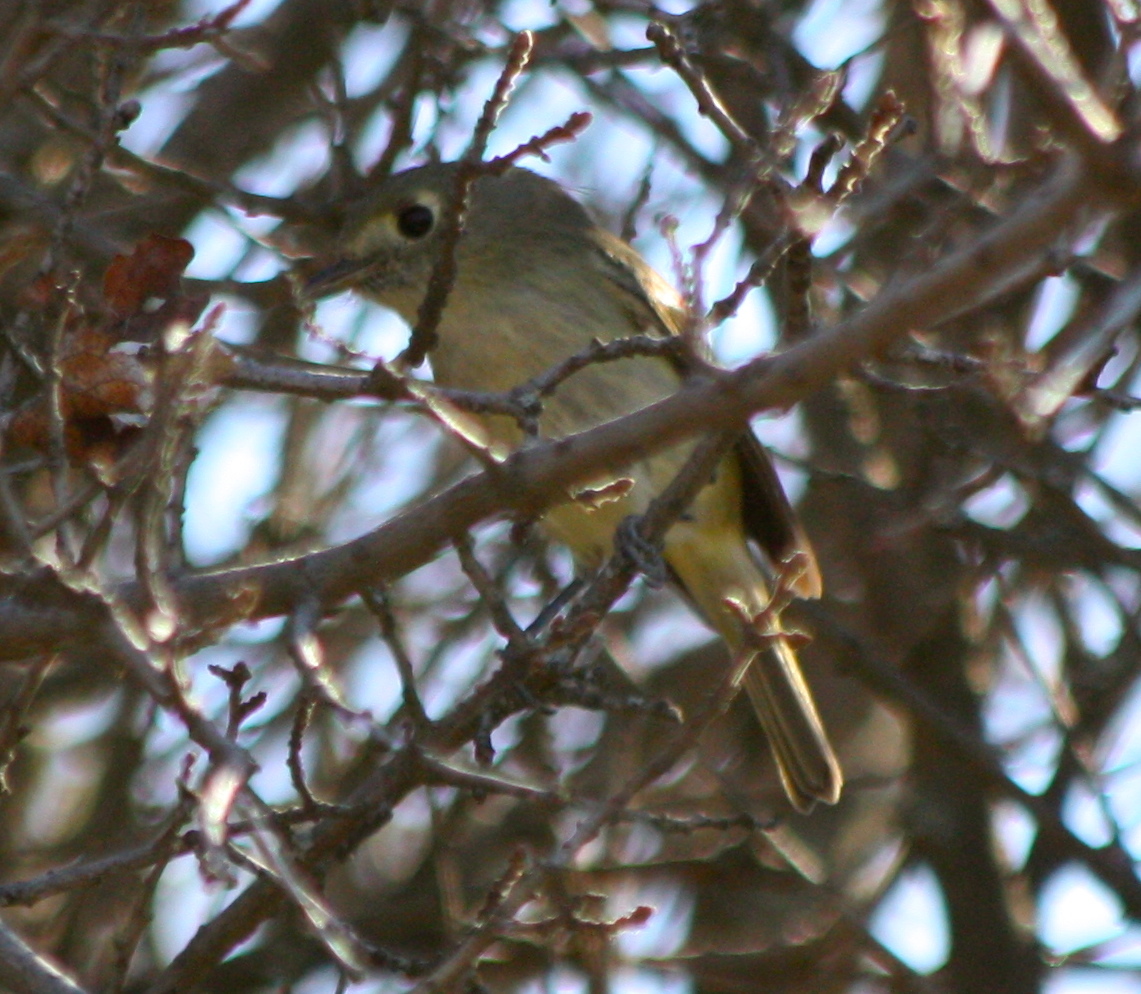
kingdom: Animalia
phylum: Chordata
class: Aves
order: Passeriformes
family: Vireonidae
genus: Vireo
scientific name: Vireo huttoni
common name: Hutton's vireo
